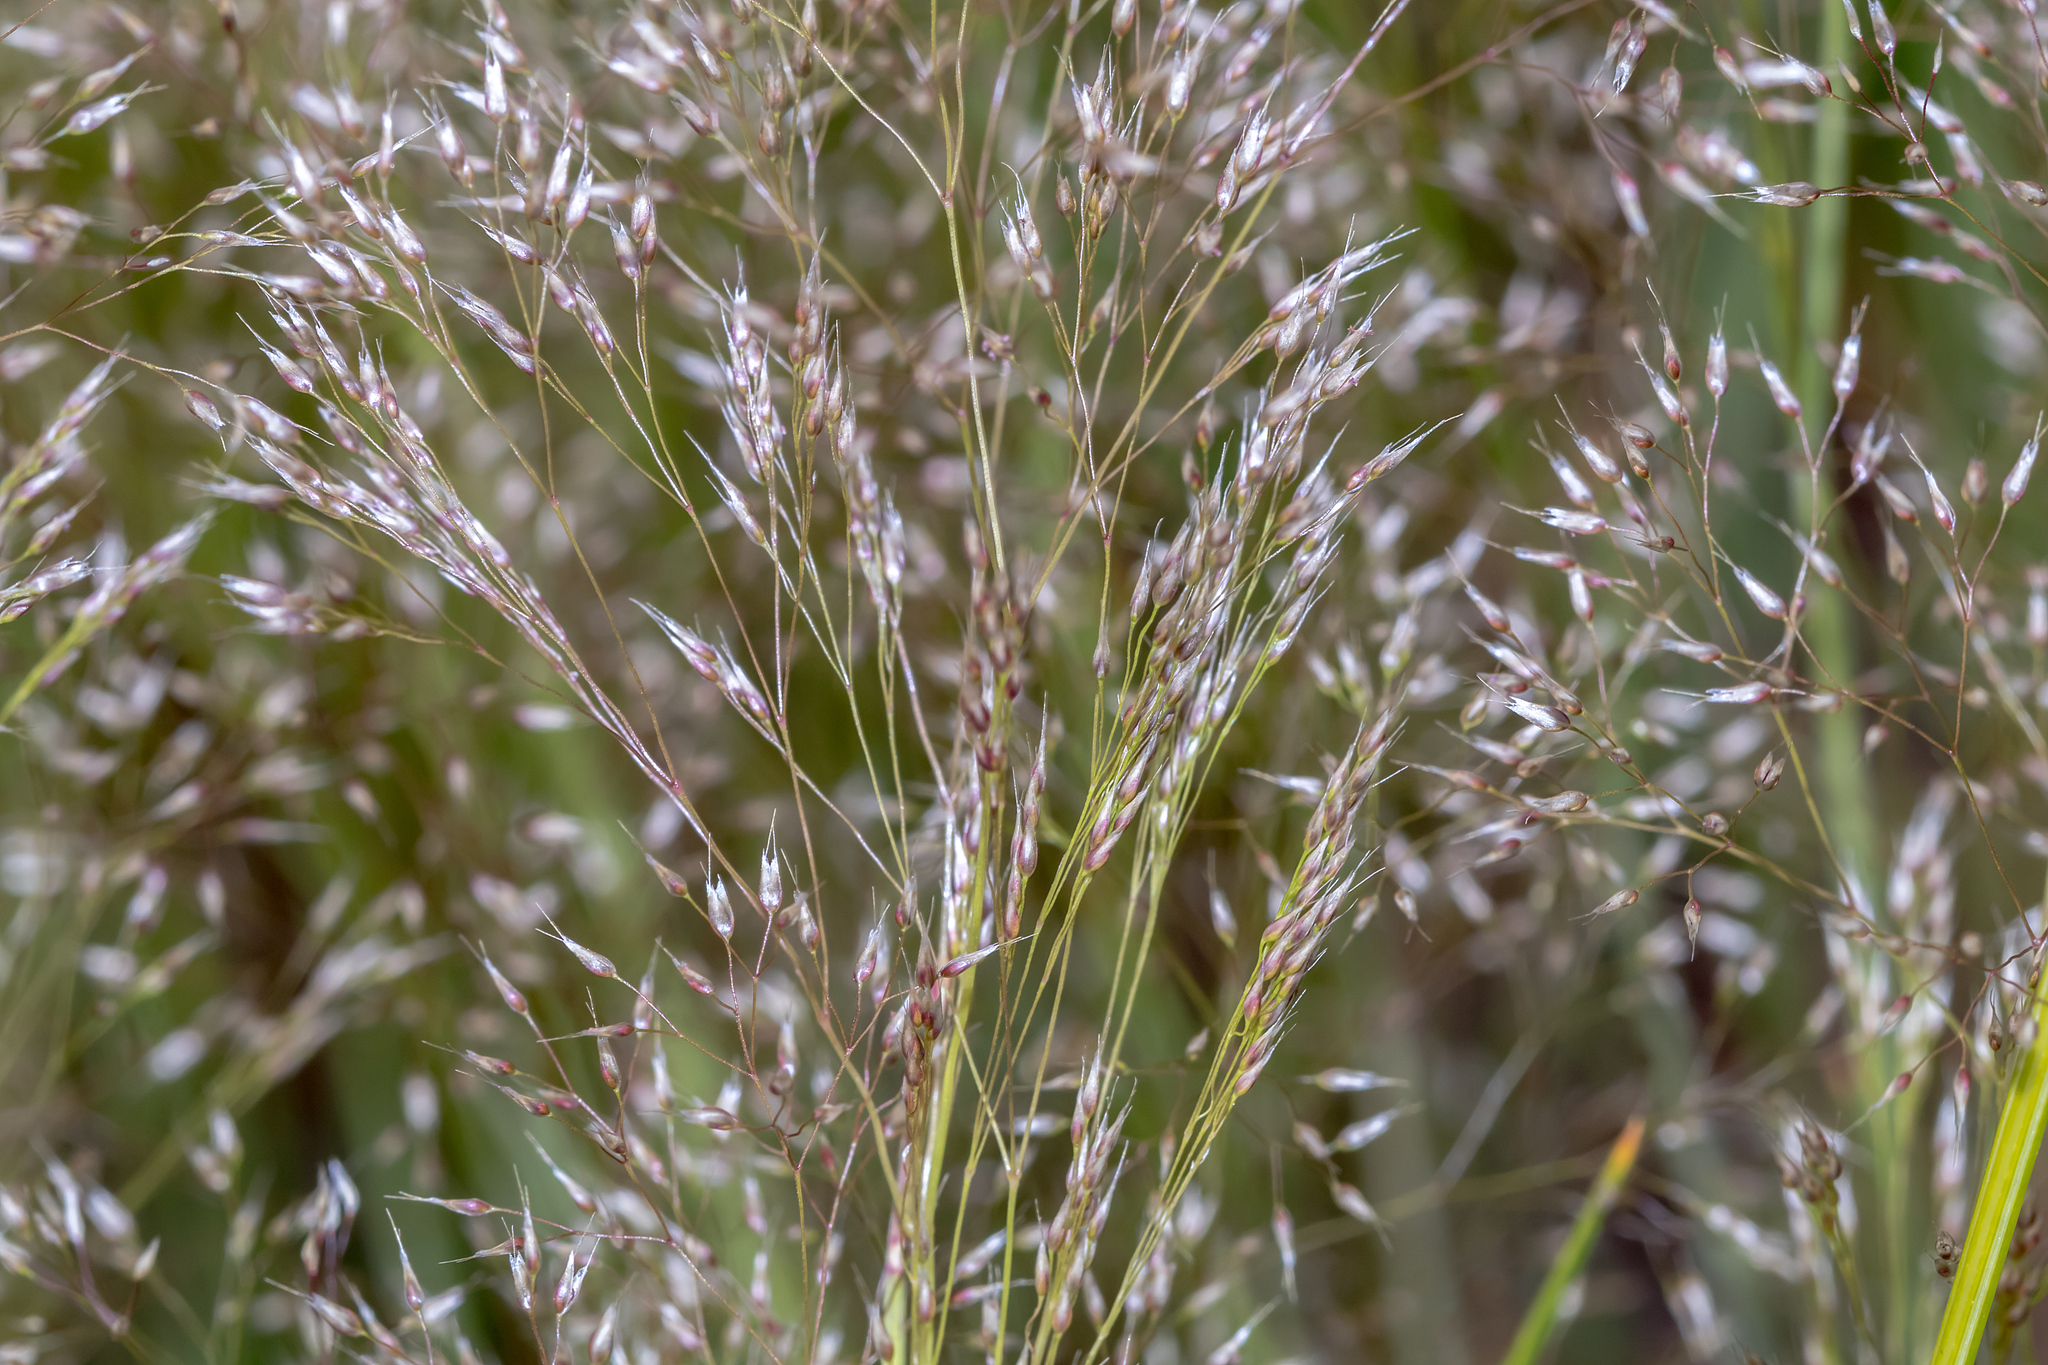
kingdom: Plantae
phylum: Tracheophyta
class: Liliopsida
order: Poales
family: Poaceae
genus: Aira
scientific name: Aira caryophyllea
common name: Silver hairgrass
